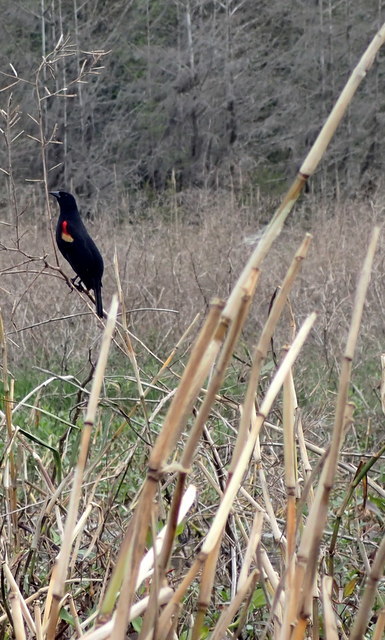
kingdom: Animalia
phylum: Chordata
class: Aves
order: Passeriformes
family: Icteridae
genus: Agelaius
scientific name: Agelaius phoeniceus
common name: Red-winged blackbird
